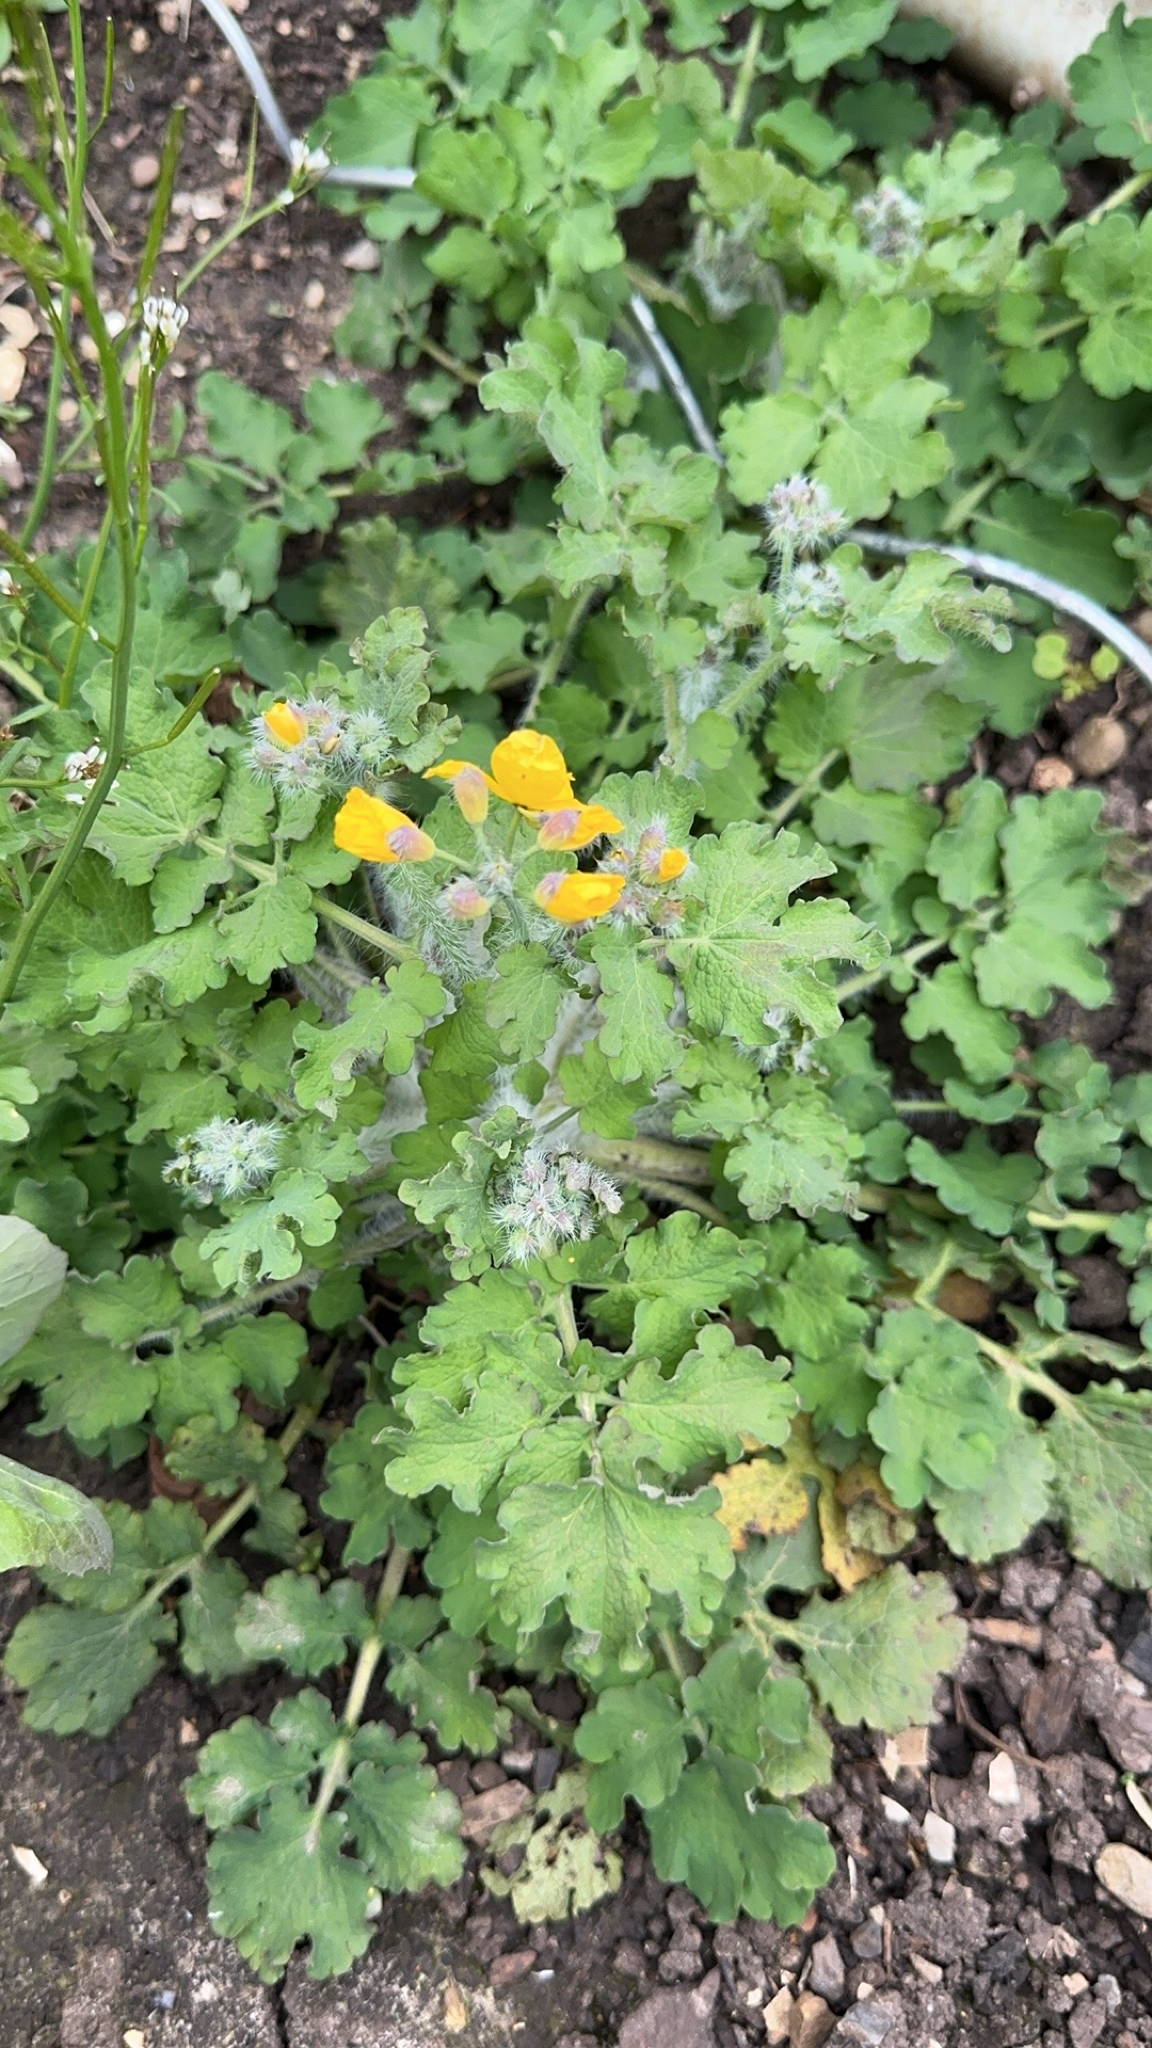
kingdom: Plantae
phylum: Tracheophyta
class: Magnoliopsida
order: Ranunculales
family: Papaveraceae
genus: Chelidonium
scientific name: Chelidonium majus
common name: Greater celandine
